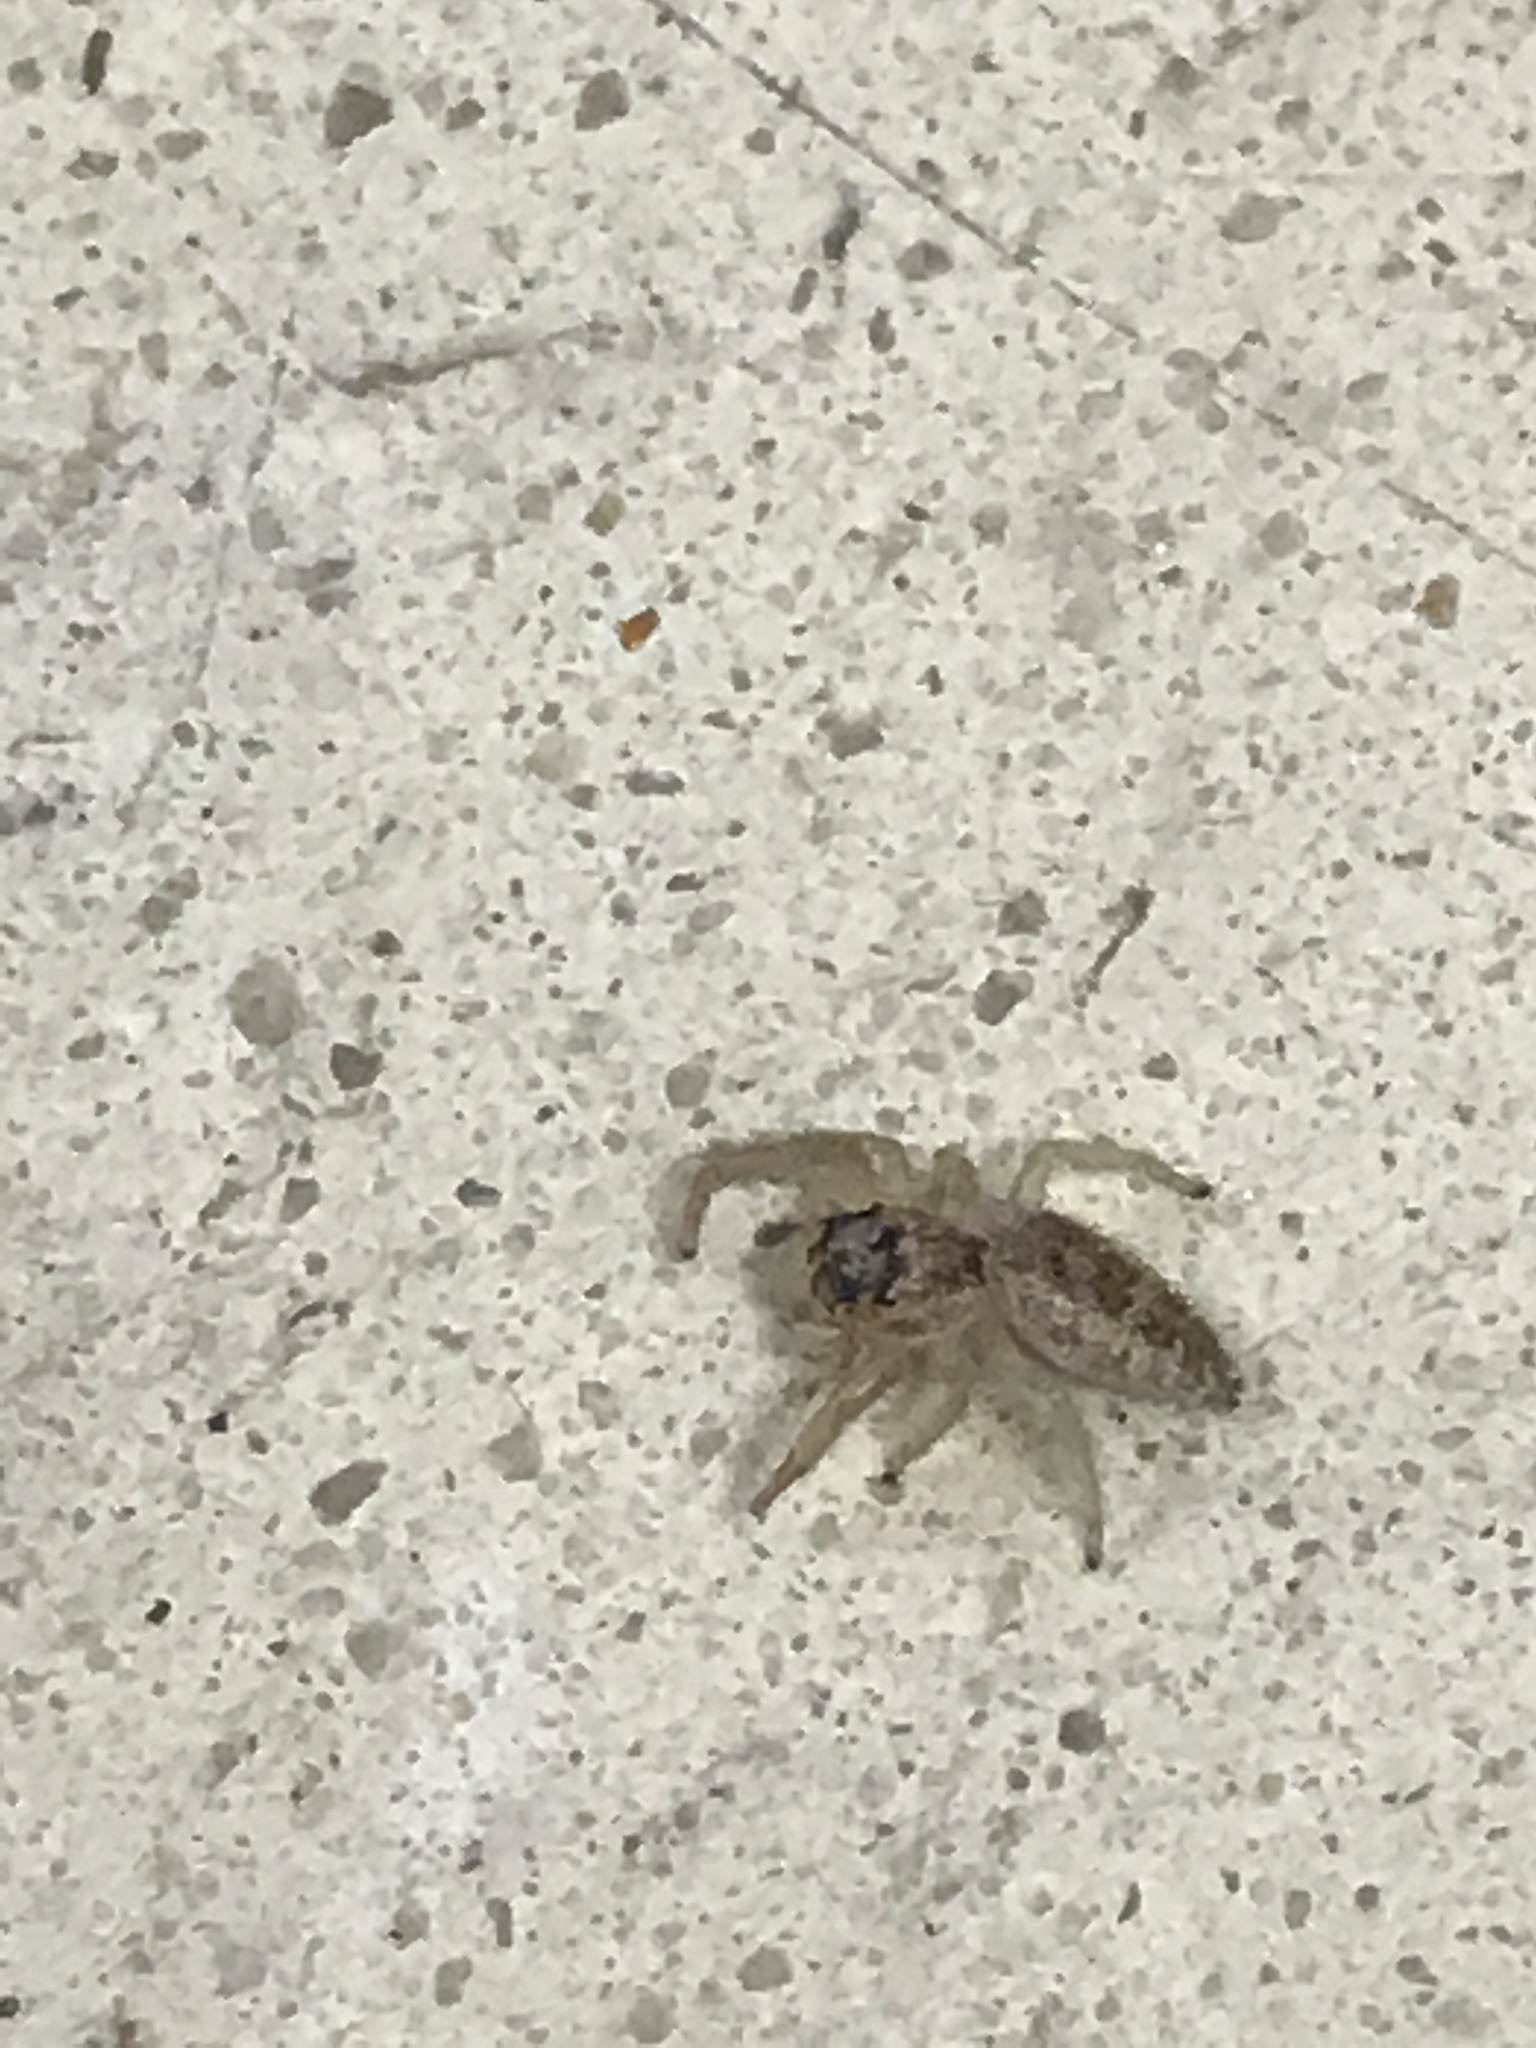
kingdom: Animalia
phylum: Arthropoda
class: Arachnida
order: Araneae
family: Salticidae
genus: Hentzia
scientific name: Hentzia mitrata
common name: White-jawed jumping spider
